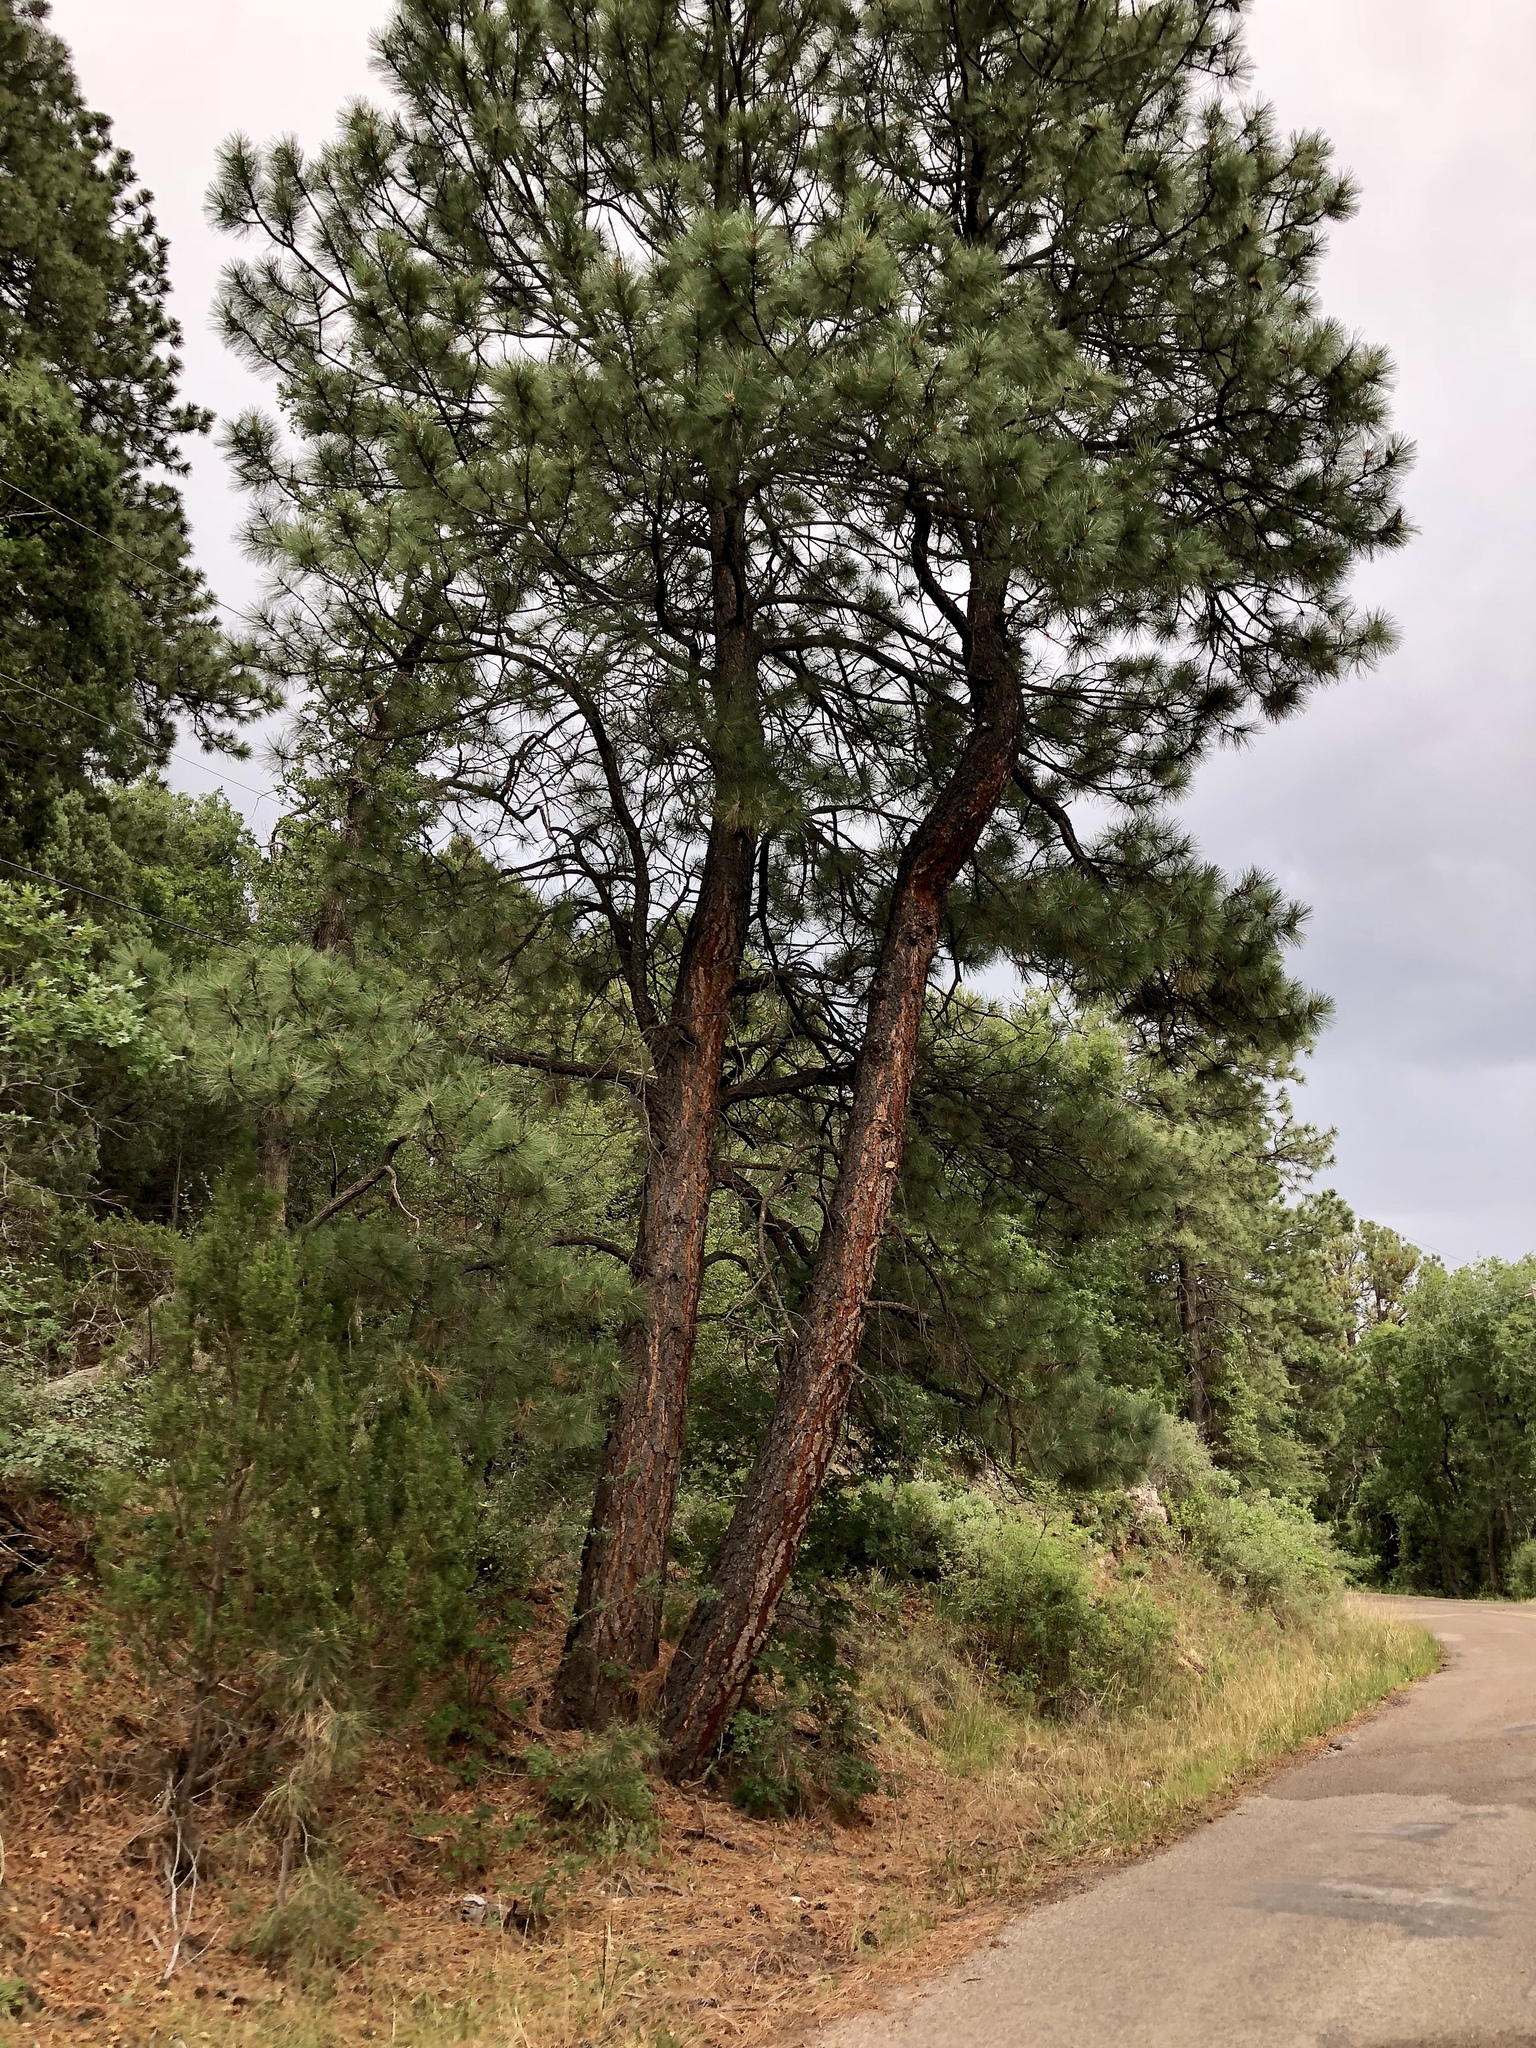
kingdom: Plantae
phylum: Tracheophyta
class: Pinopsida
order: Pinales
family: Pinaceae
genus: Pinus
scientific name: Pinus ponderosa
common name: Western yellow-pine
